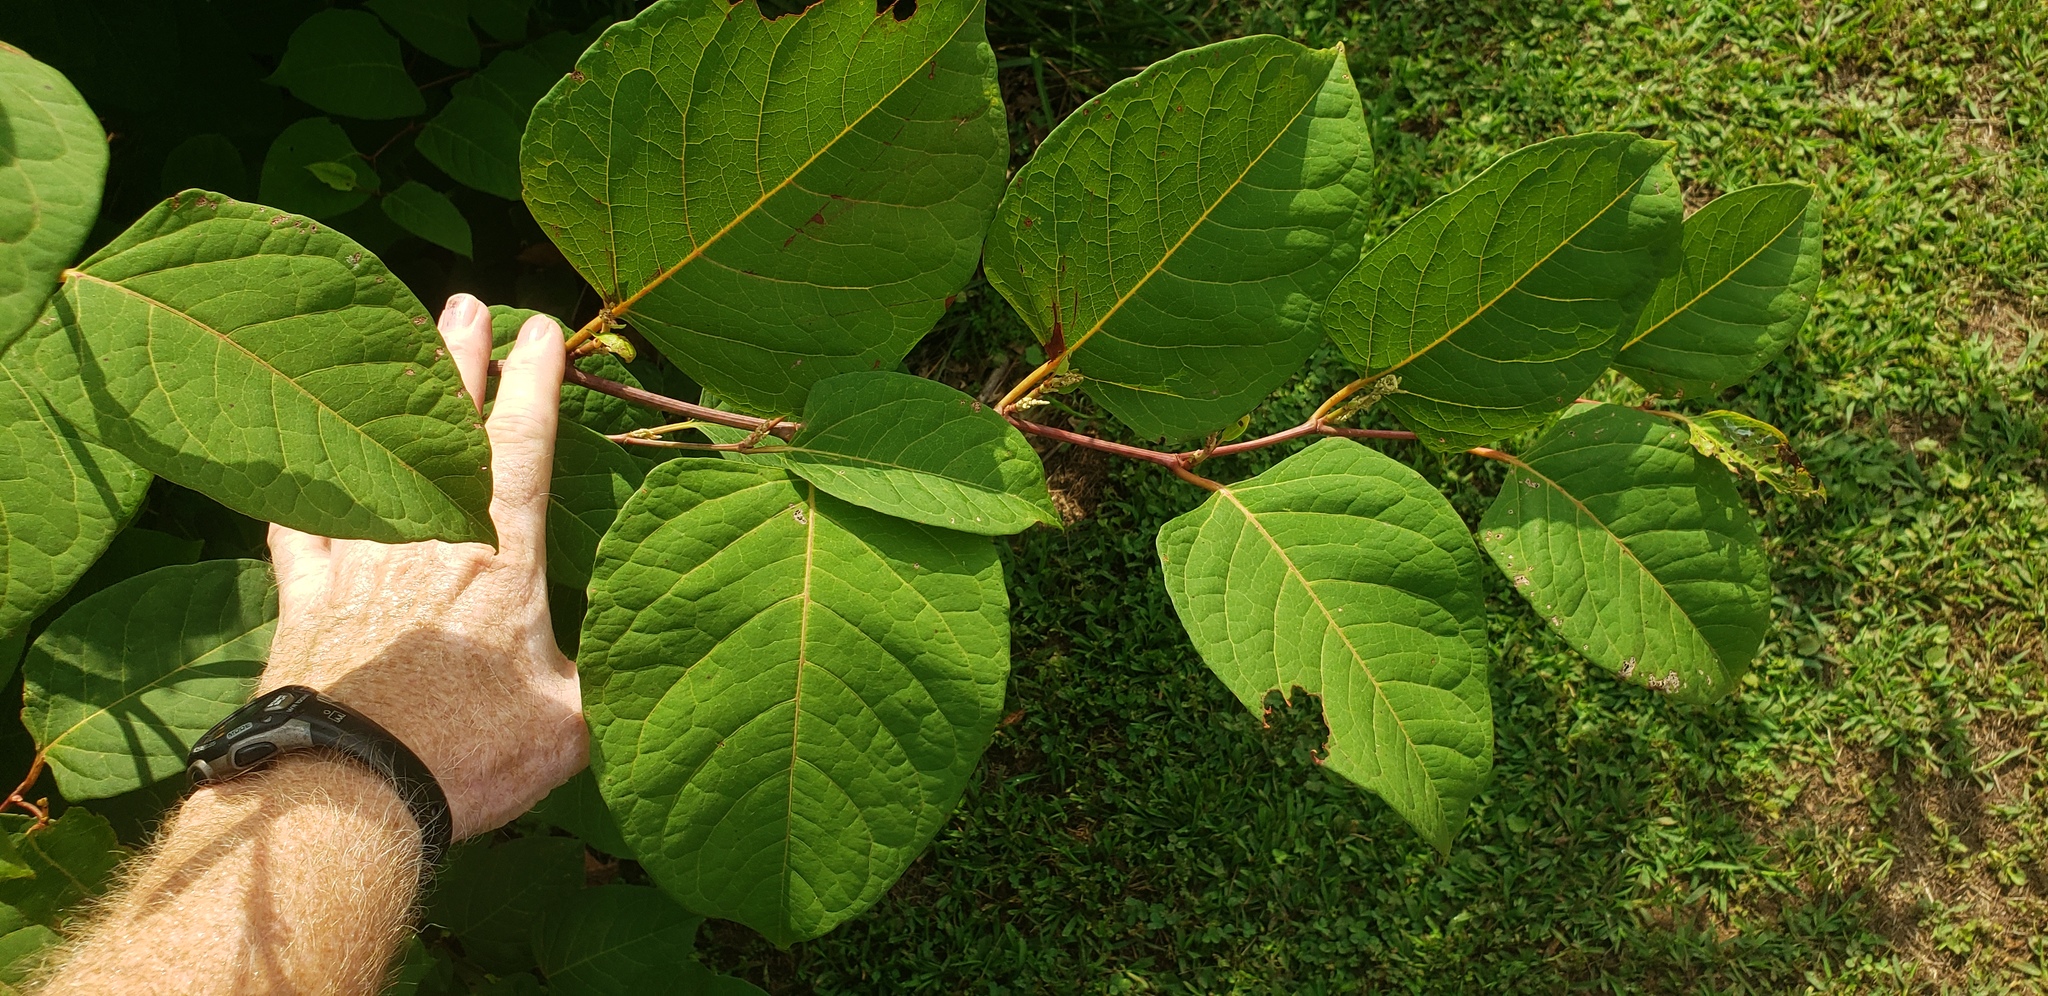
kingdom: Plantae
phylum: Tracheophyta
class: Magnoliopsida
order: Caryophyllales
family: Polygonaceae
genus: Reynoutria
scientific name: Reynoutria japonica
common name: Japanese knotweed
